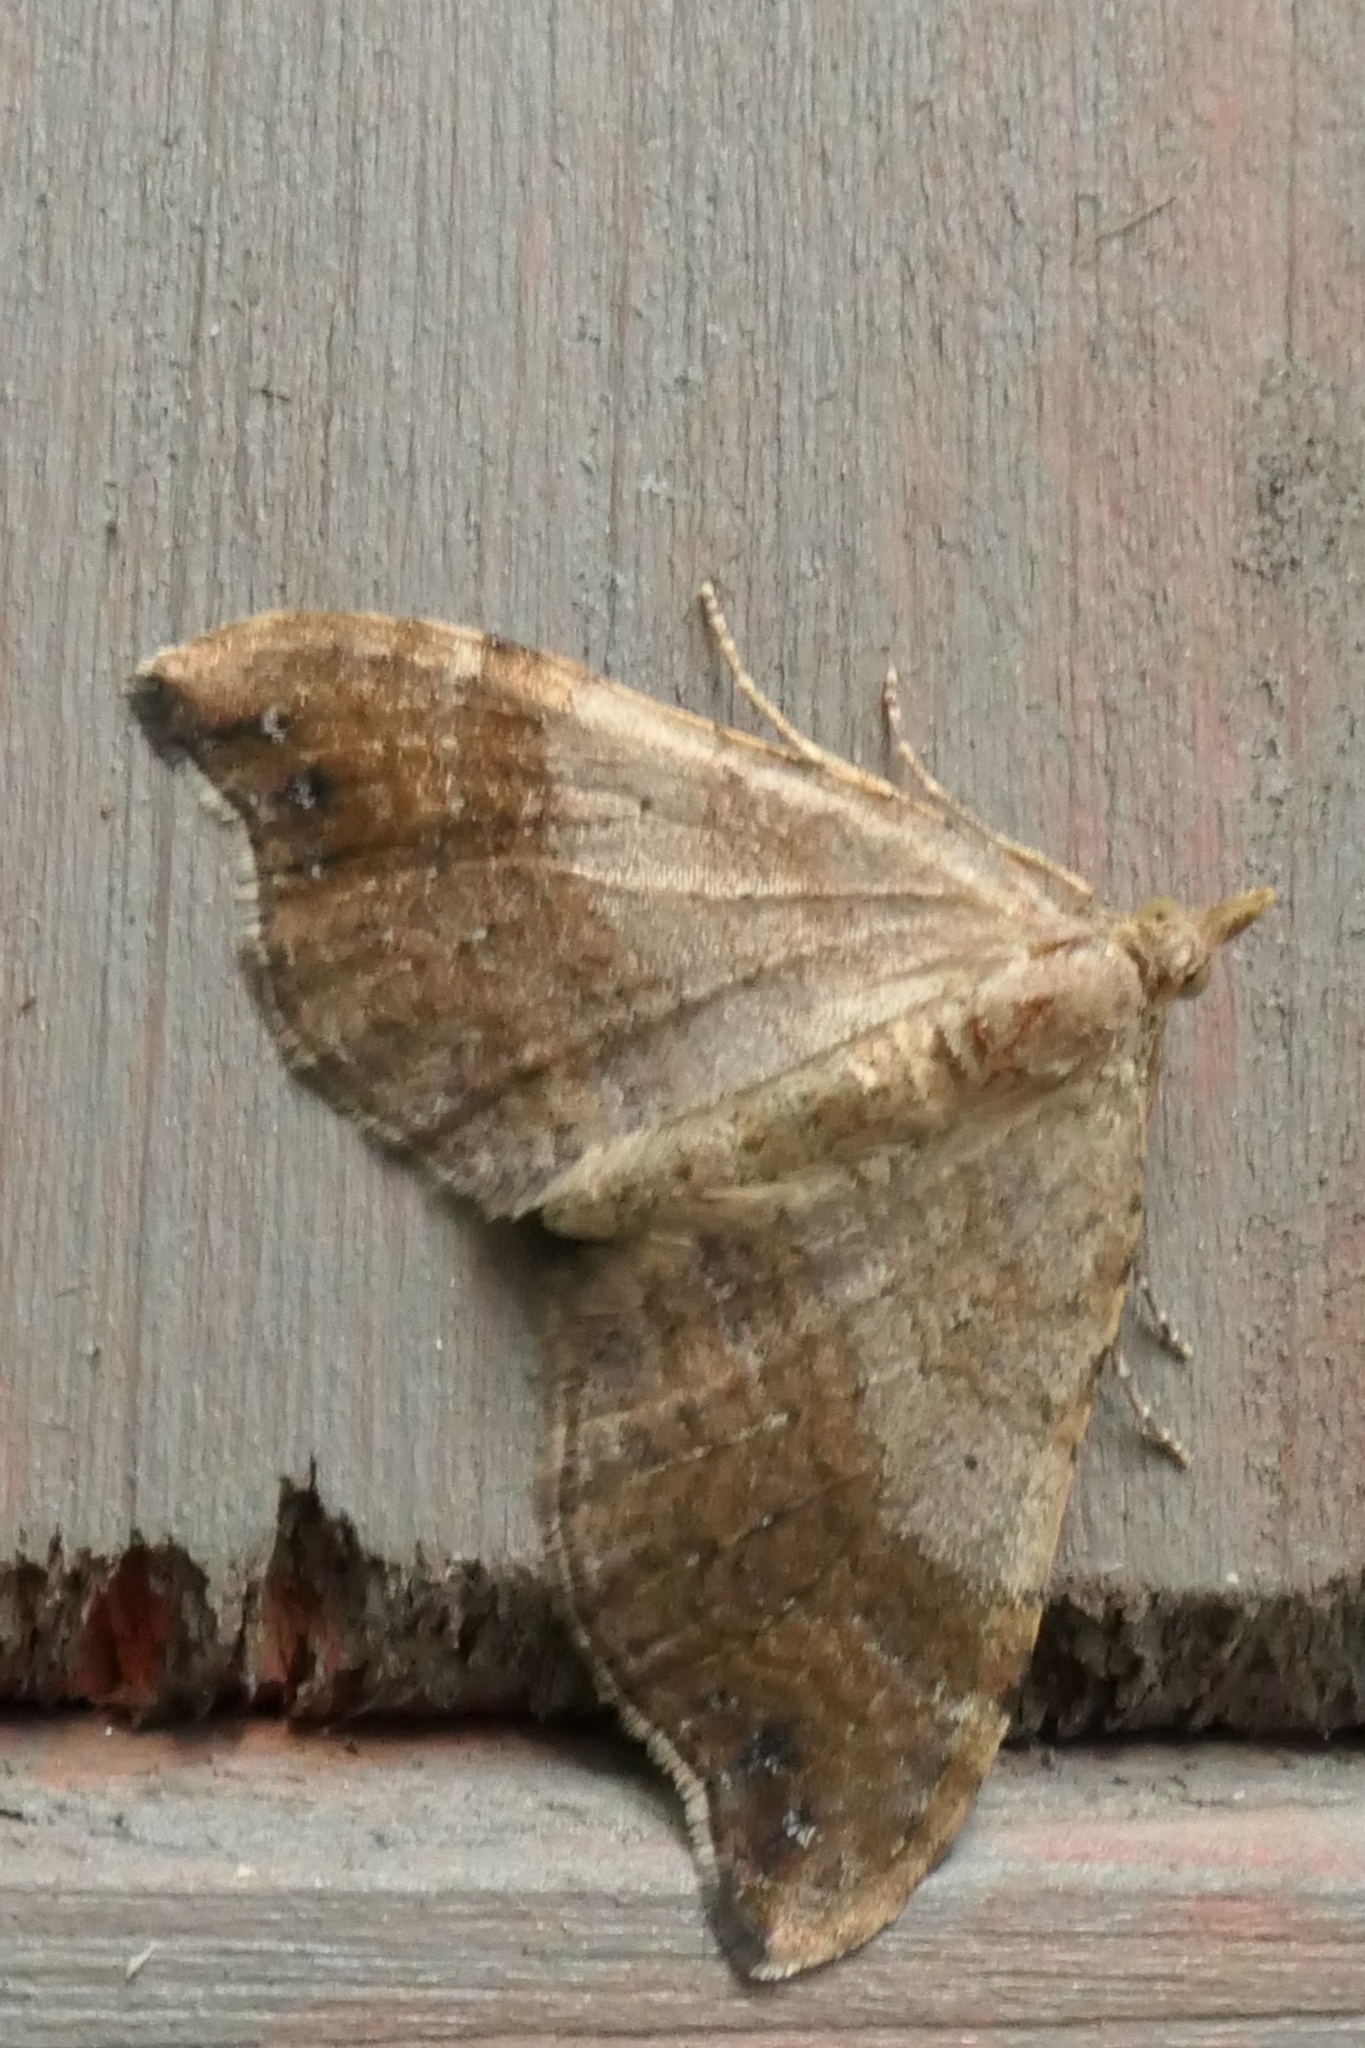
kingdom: Animalia
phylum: Arthropoda
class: Insecta
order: Lepidoptera
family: Geometridae
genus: Homodotis
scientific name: Homodotis megaspilata
